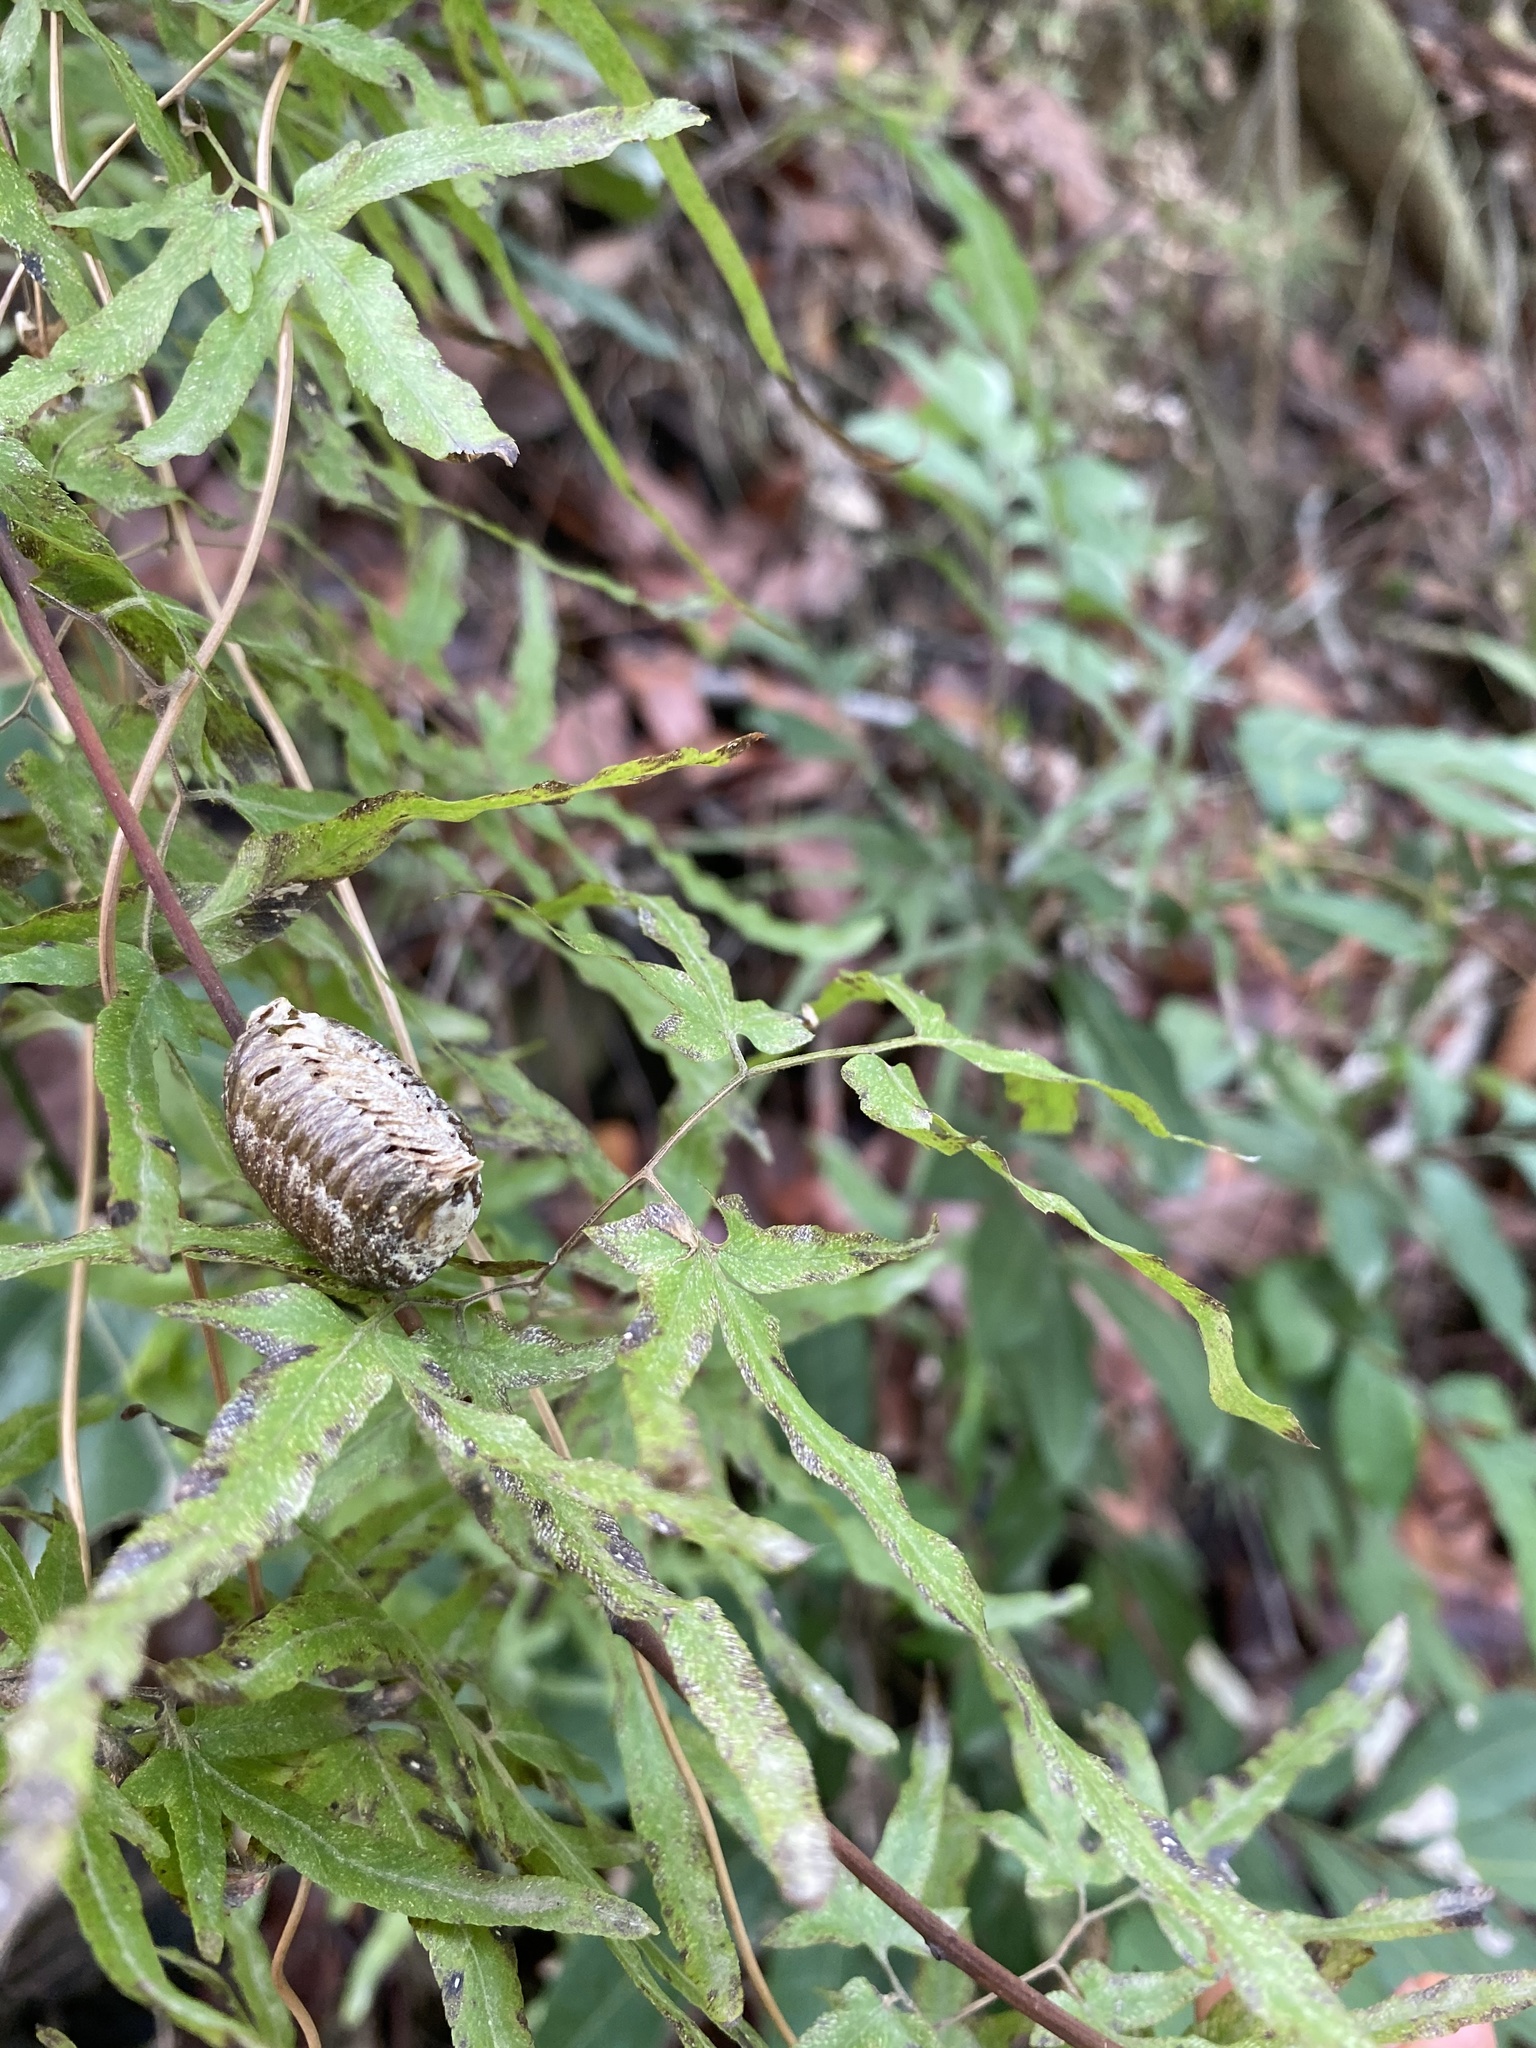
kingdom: Animalia
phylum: Arthropoda
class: Insecta
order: Mantodea
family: Mantidae
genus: Hierodula
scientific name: Hierodula patellifera
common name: Asian mantis
